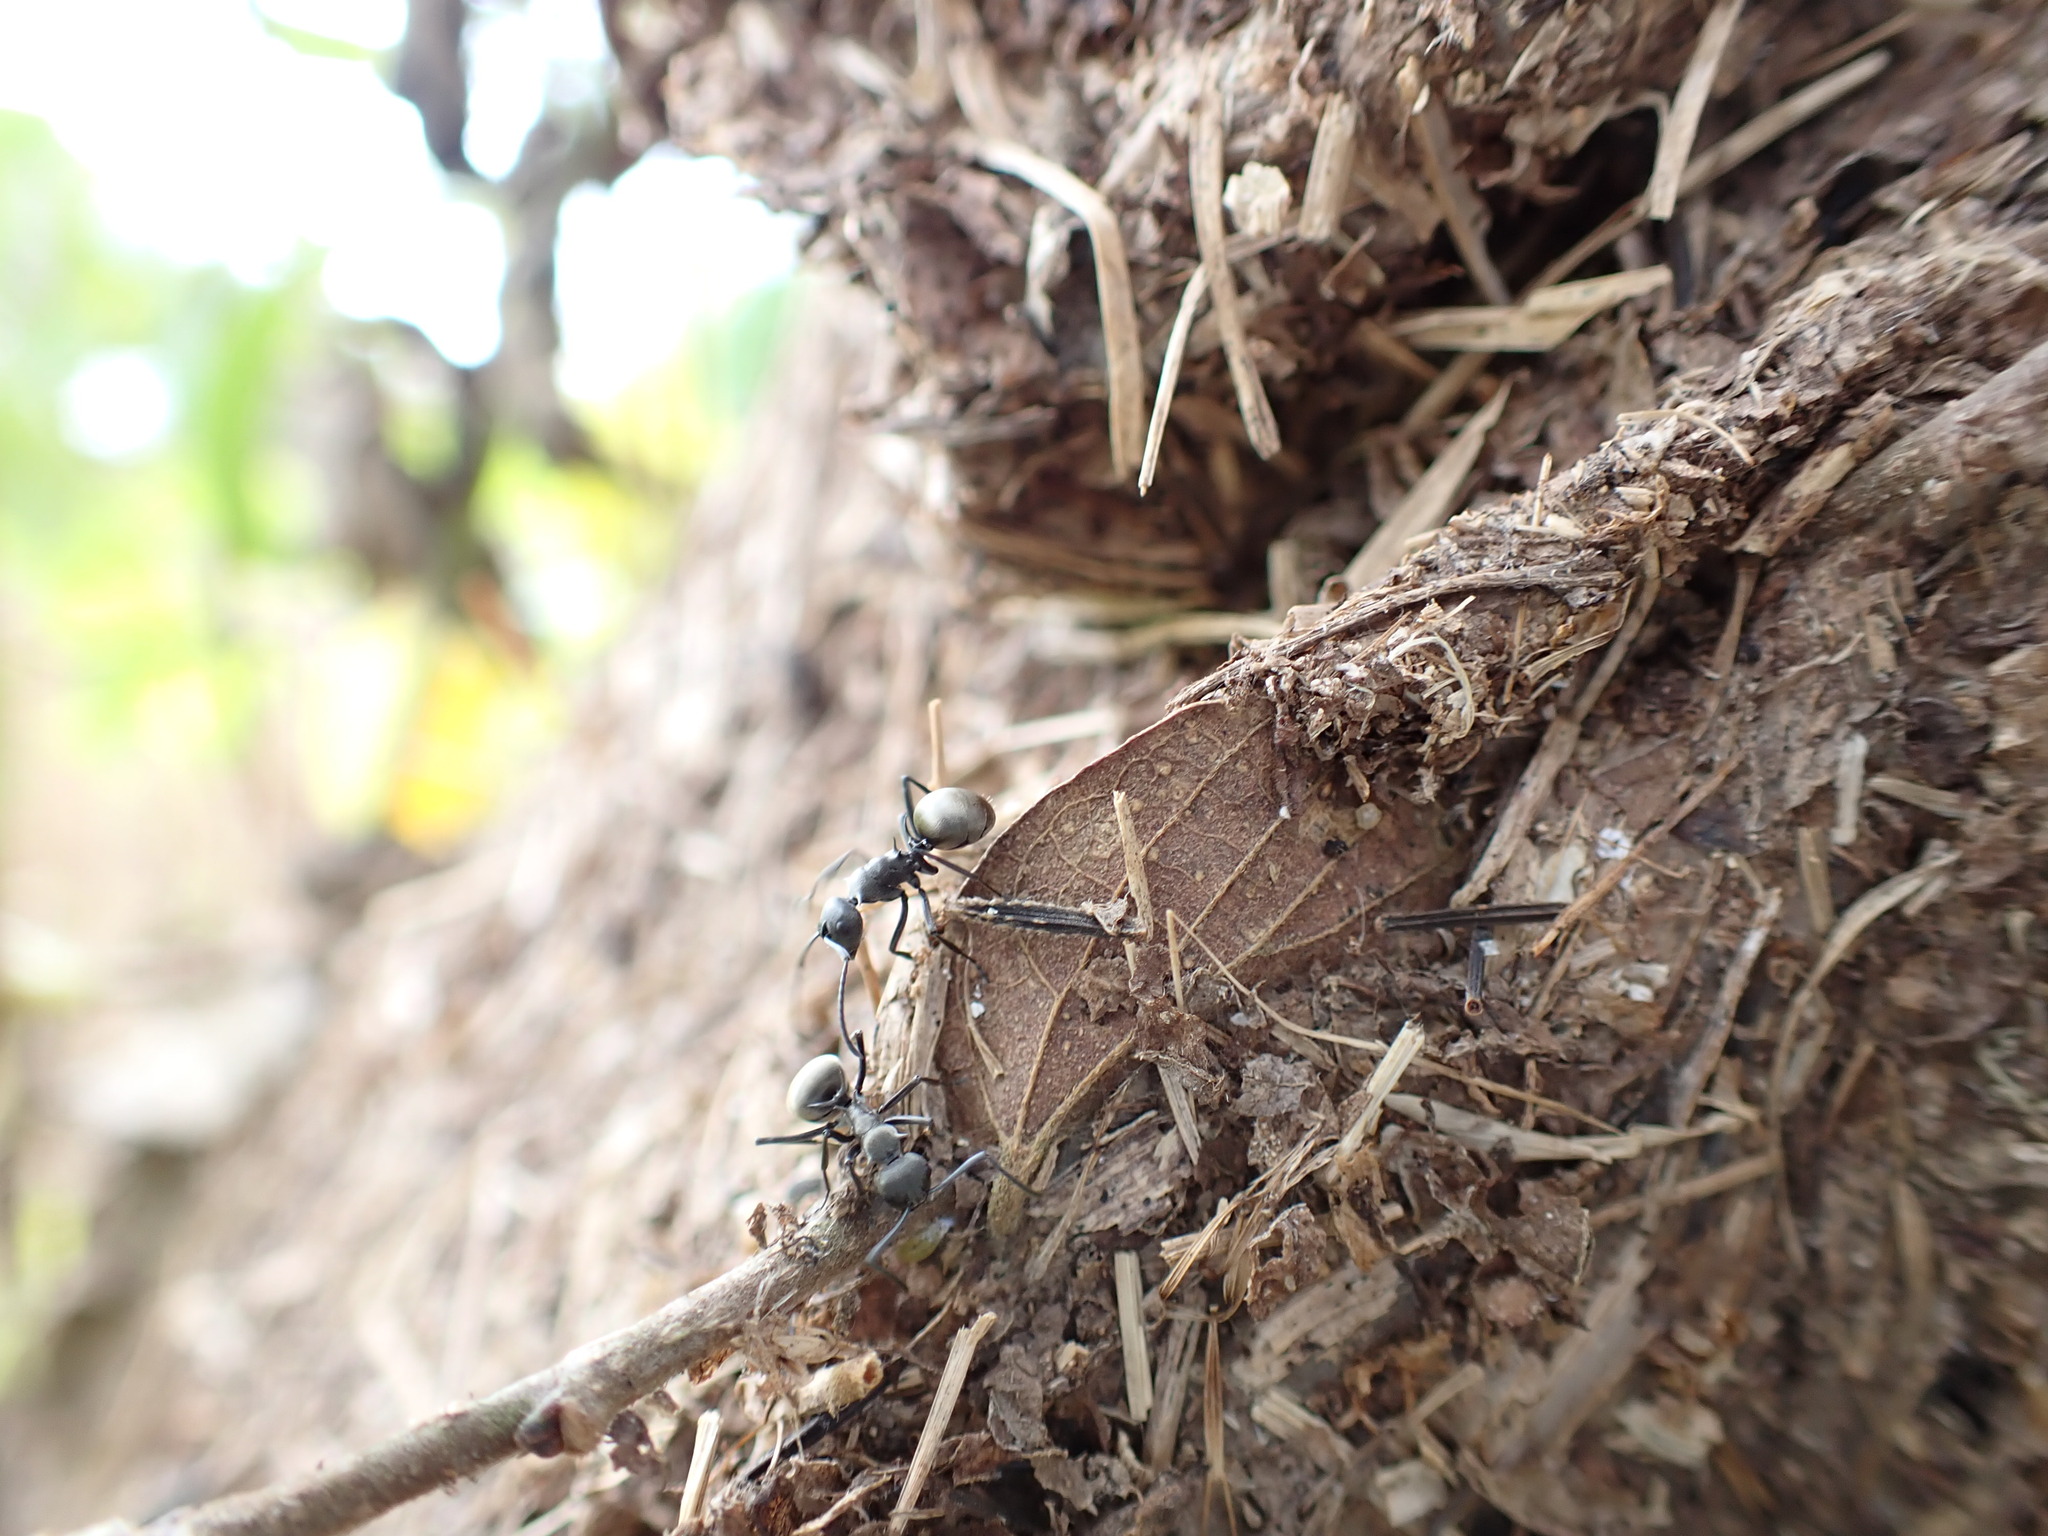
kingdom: Animalia
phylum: Arthropoda
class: Insecta
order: Hymenoptera
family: Formicidae
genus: Polyrhachis
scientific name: Polyrhachis dives
